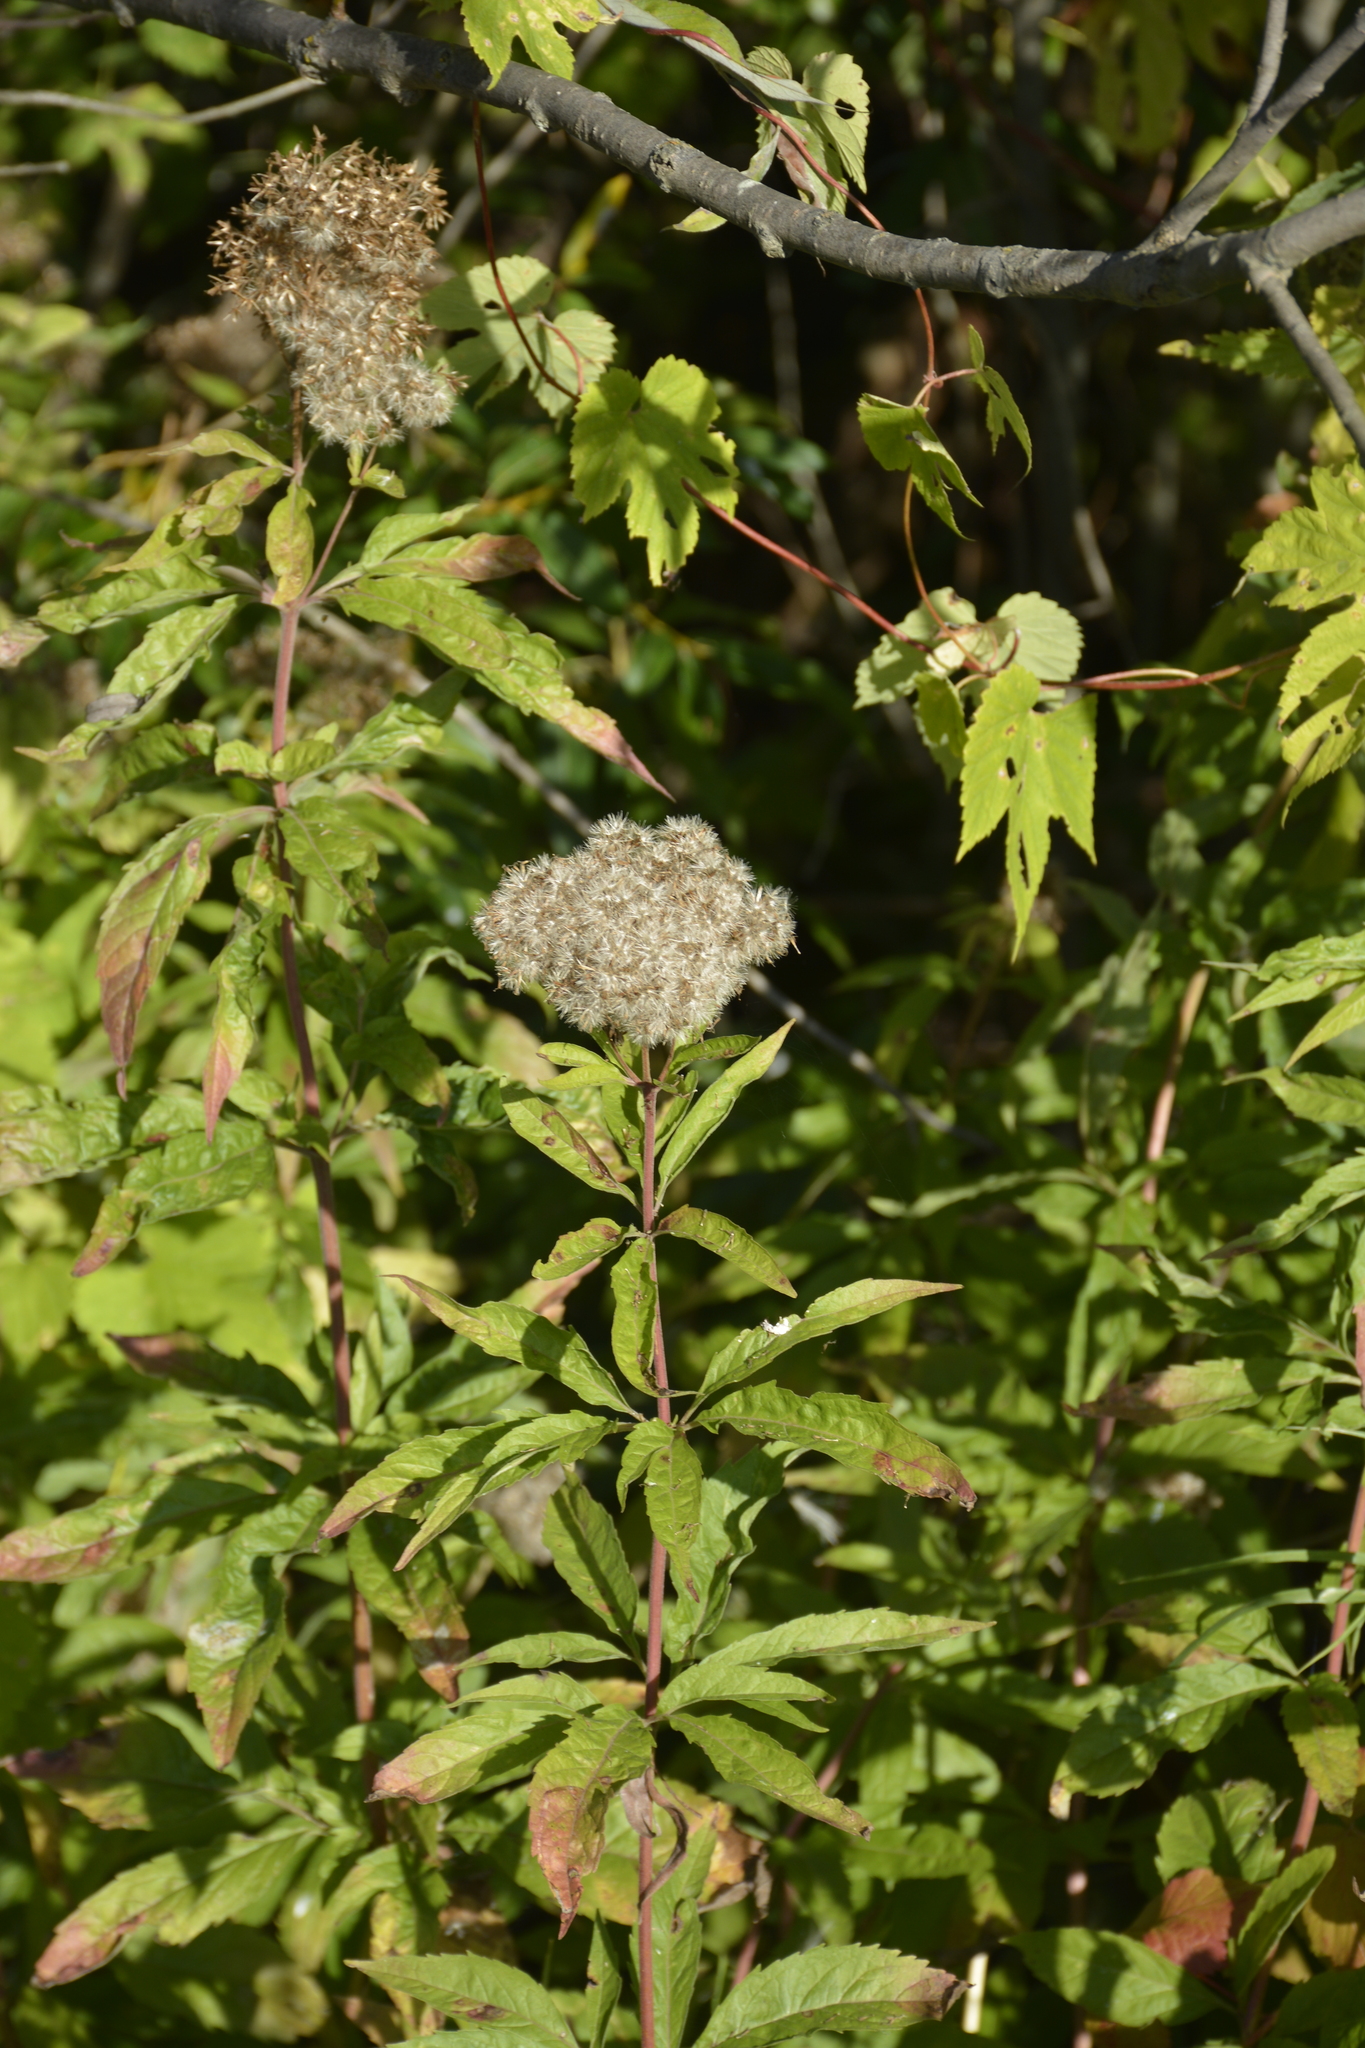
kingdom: Plantae
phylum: Tracheophyta
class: Magnoliopsida
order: Asterales
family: Asteraceae
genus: Eupatorium
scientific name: Eupatorium cannabinum
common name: Hemp-agrimony
